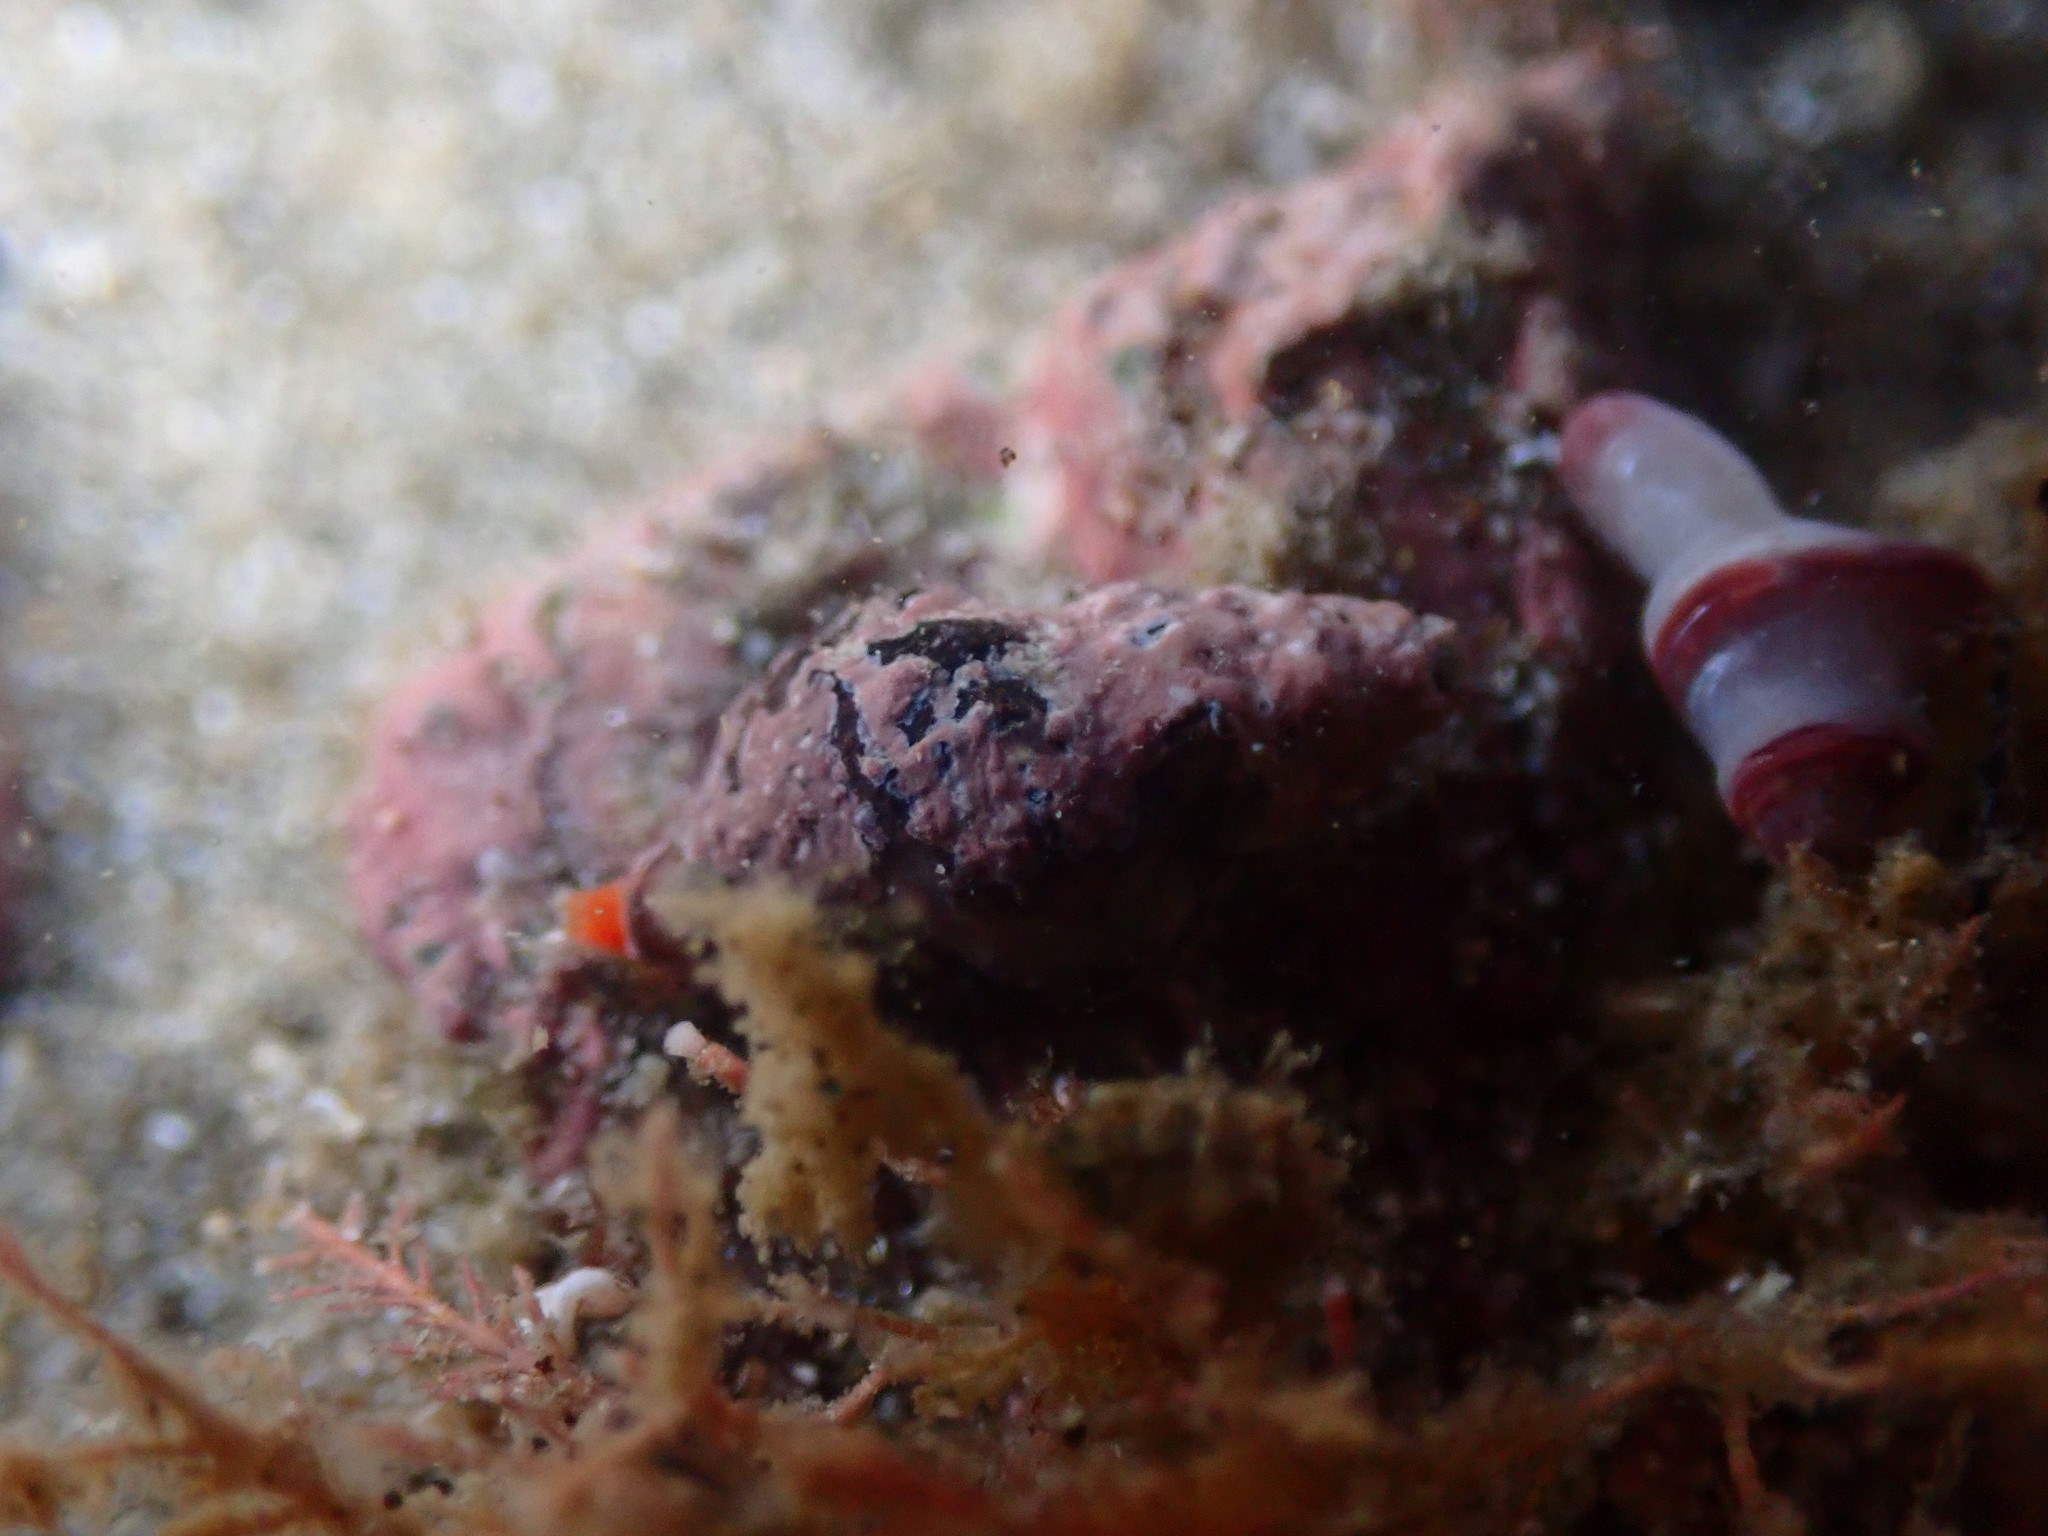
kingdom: Animalia
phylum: Mollusca
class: Gastropoda
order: Neogastropoda
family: Fasciolariidae
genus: Taron
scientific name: Taron dubius
